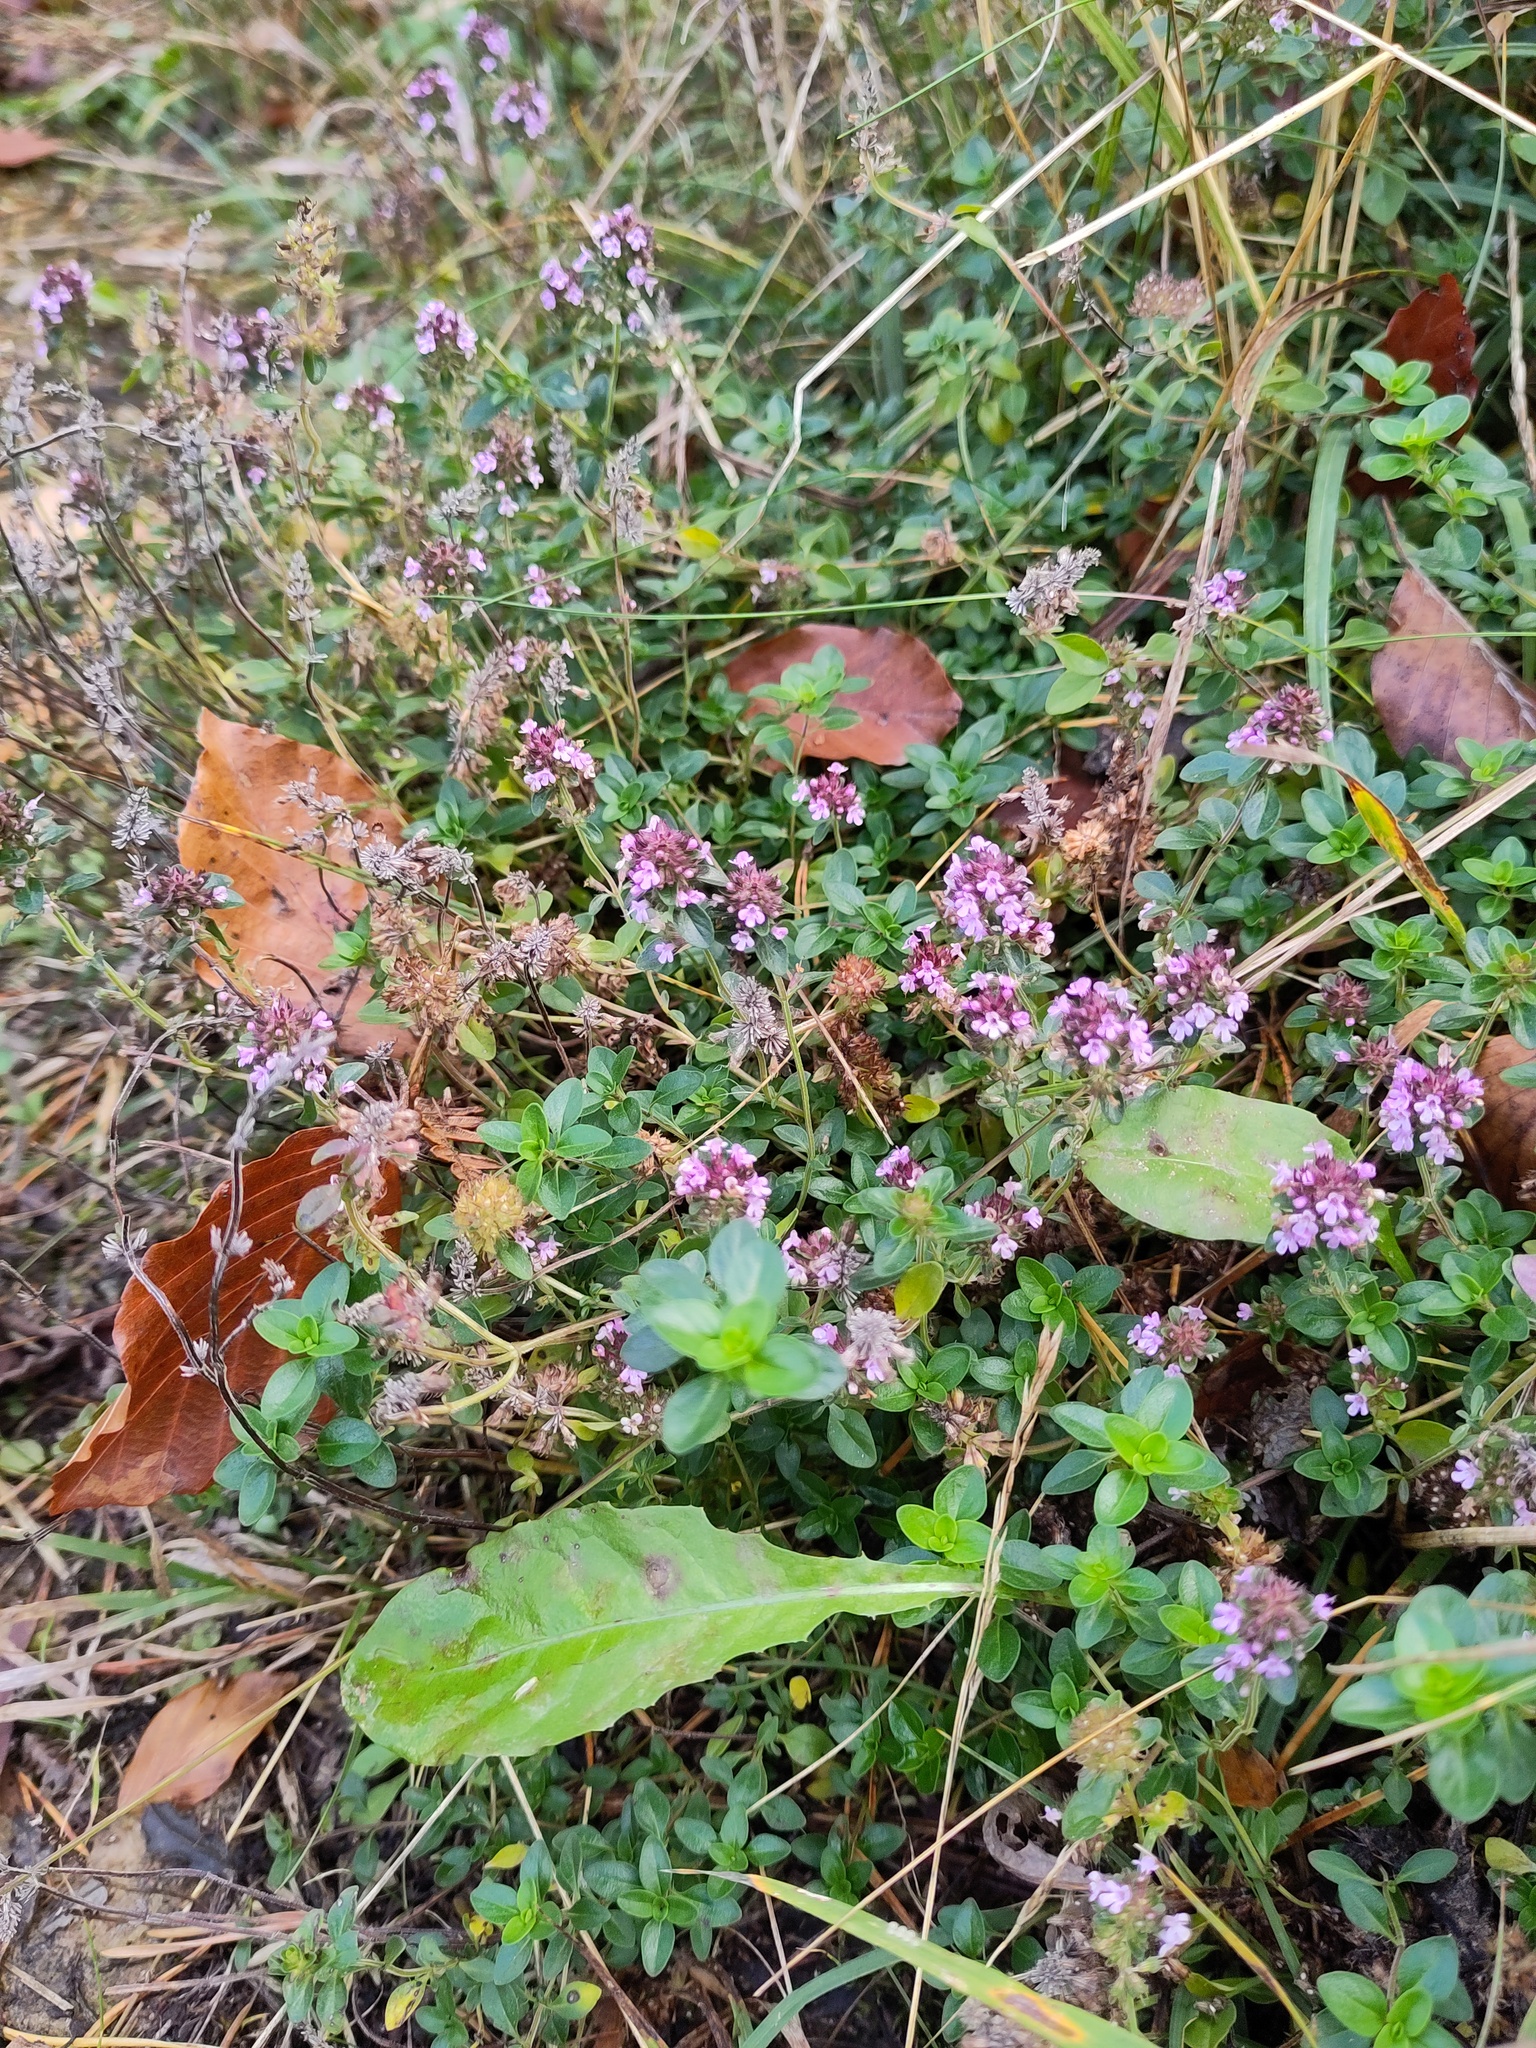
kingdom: Plantae
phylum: Tracheophyta
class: Magnoliopsida
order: Lamiales
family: Lamiaceae
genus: Thymus
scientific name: Thymus pulegioides
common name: Large thyme
